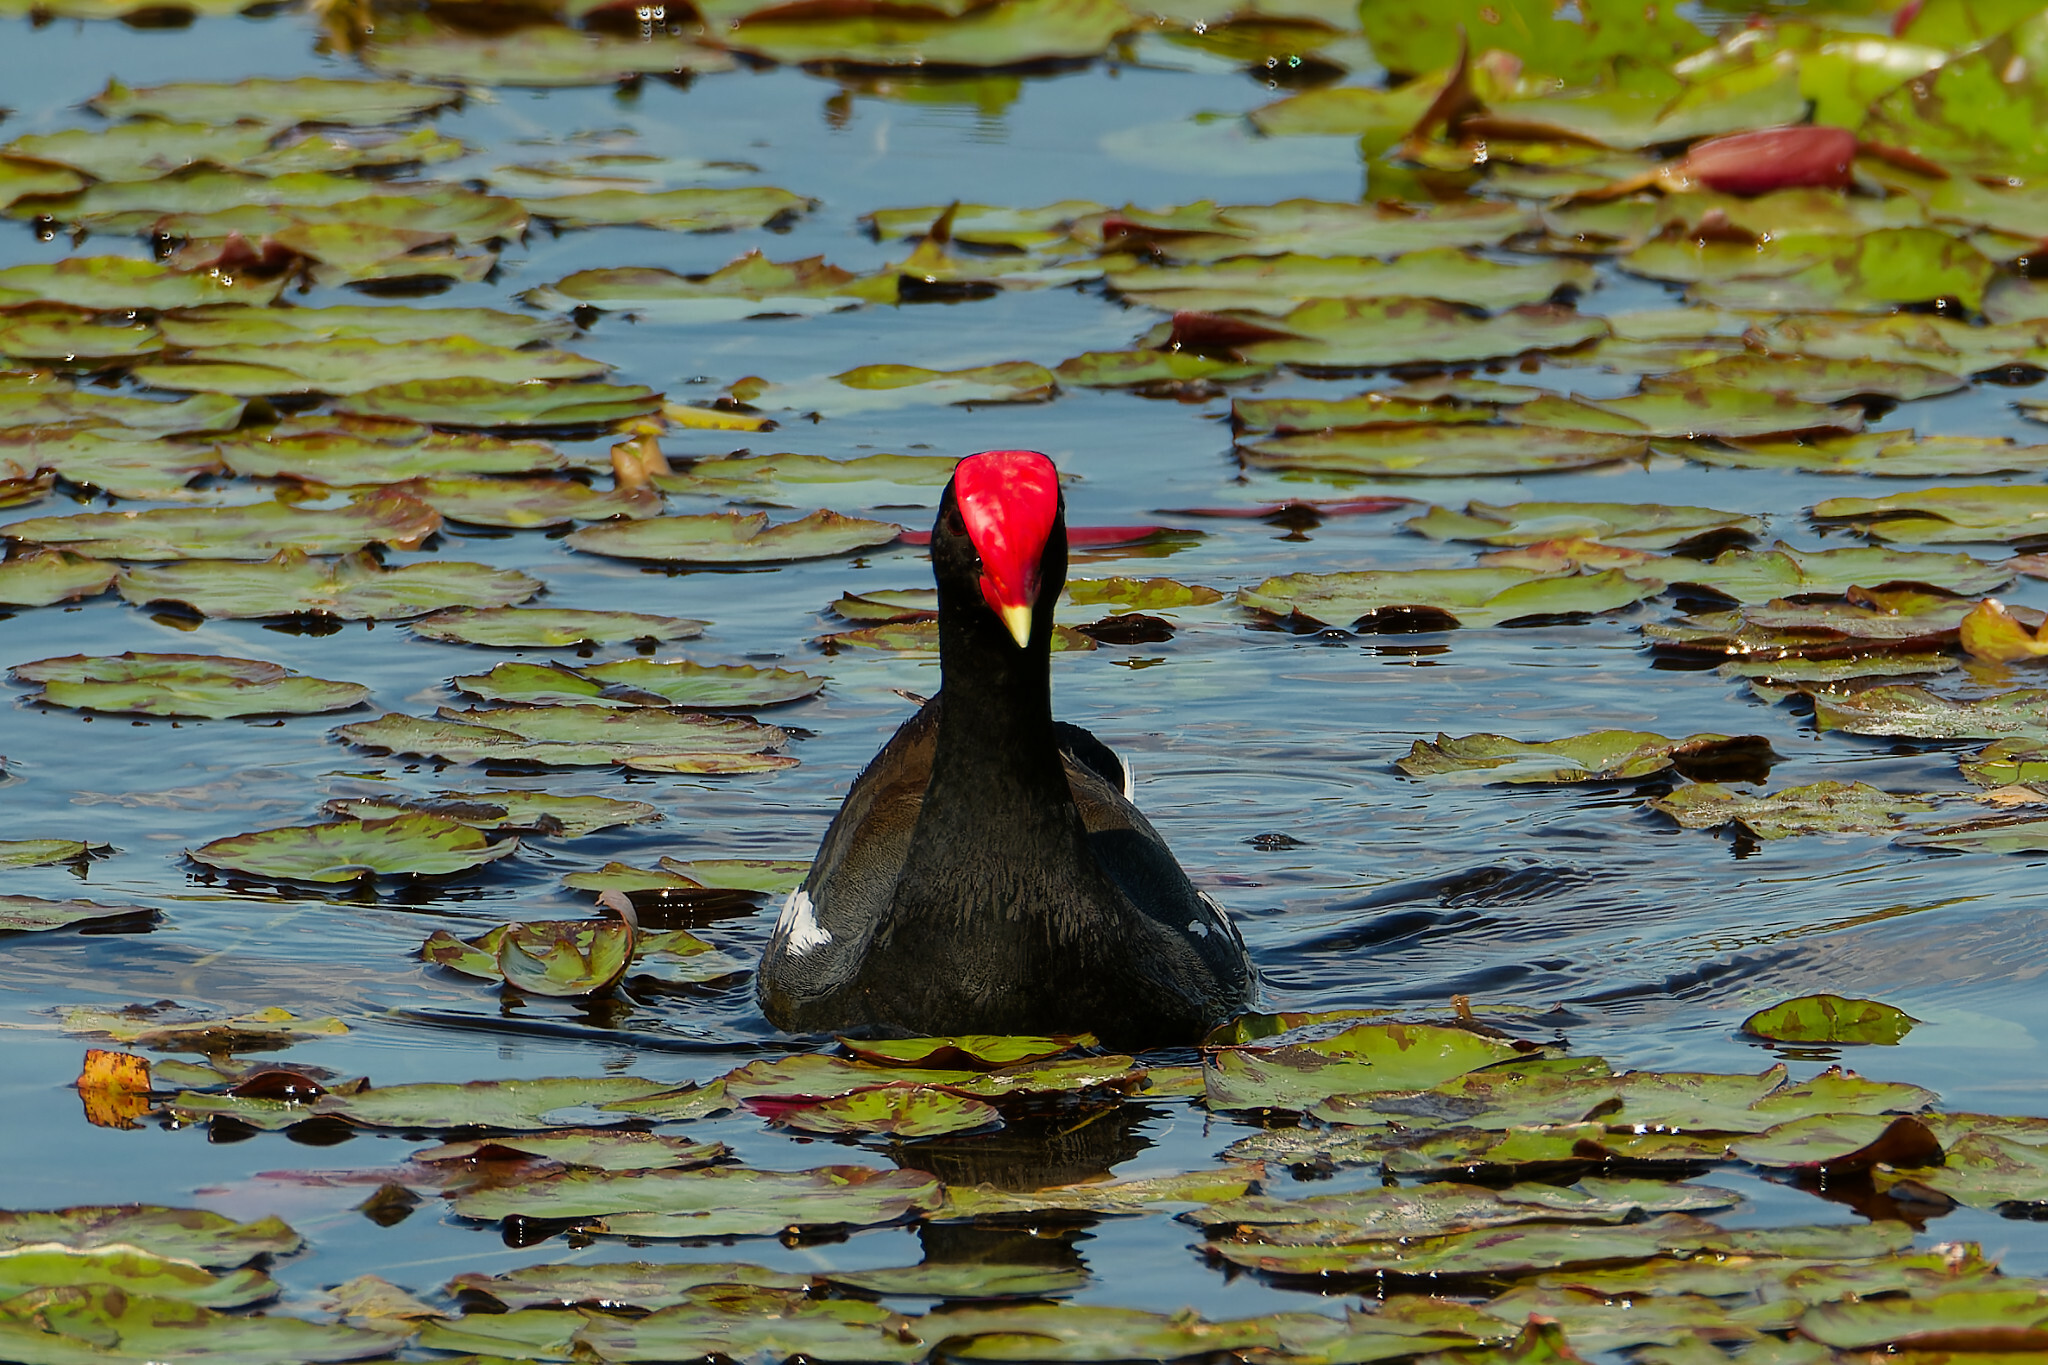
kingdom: Animalia
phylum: Chordata
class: Aves
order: Gruiformes
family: Rallidae
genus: Gallinula
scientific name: Gallinula chloropus
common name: Common moorhen
